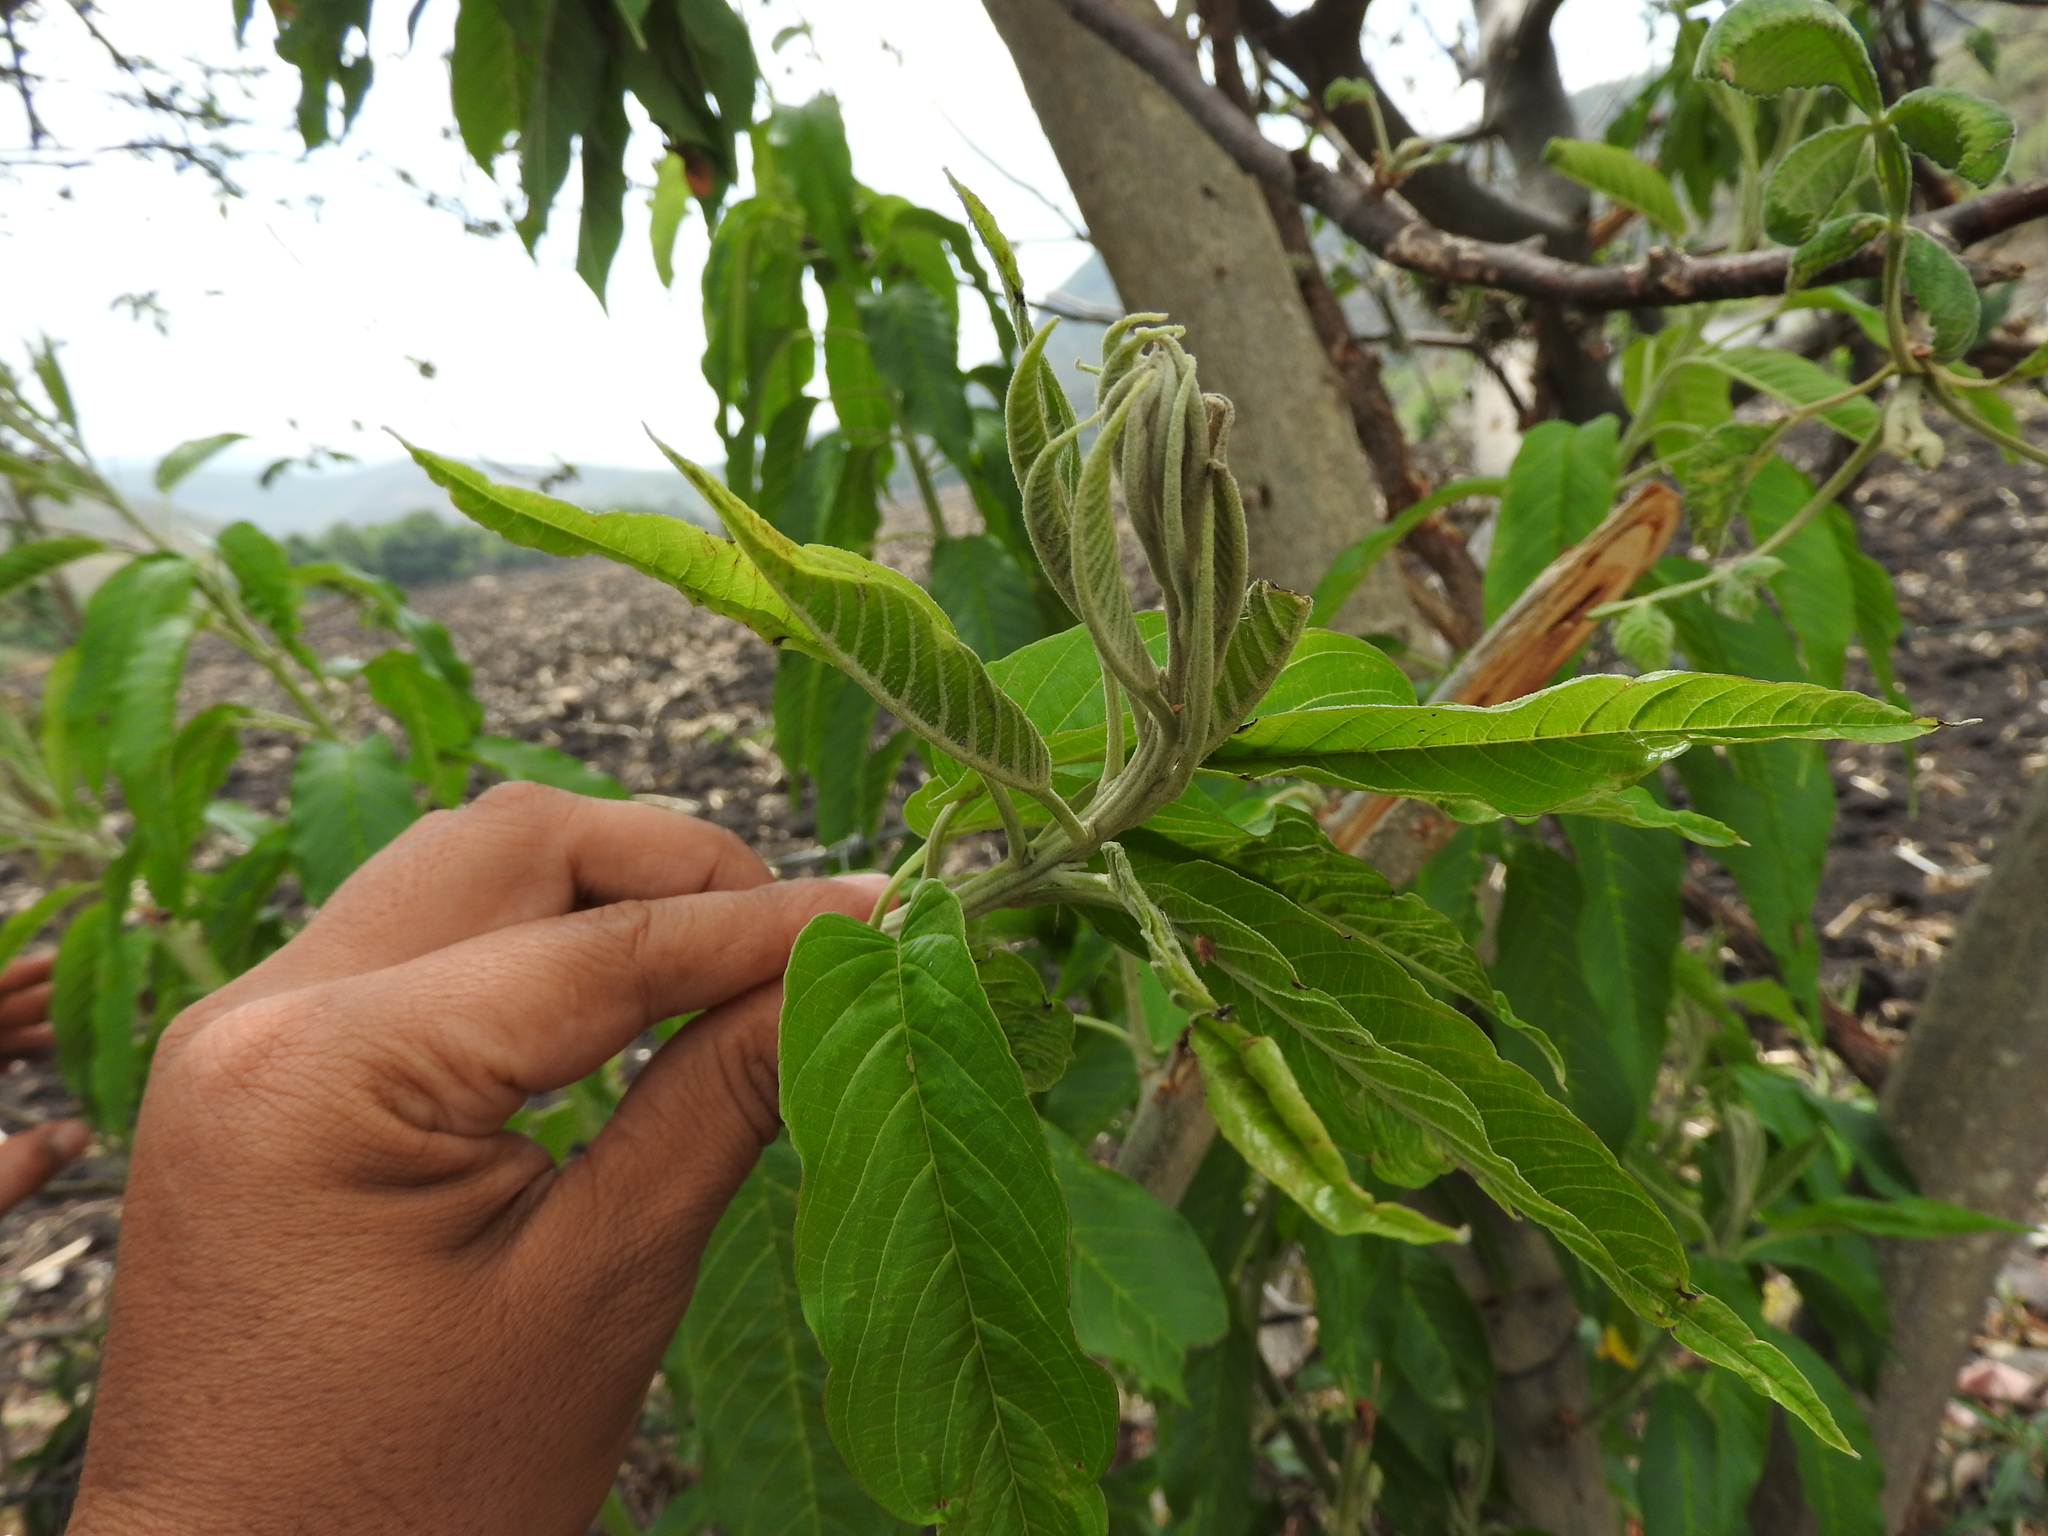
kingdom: Plantae
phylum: Tracheophyta
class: Magnoliopsida
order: Solanales
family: Convolvulaceae
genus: Ipomoea
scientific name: Ipomoea murucoides
